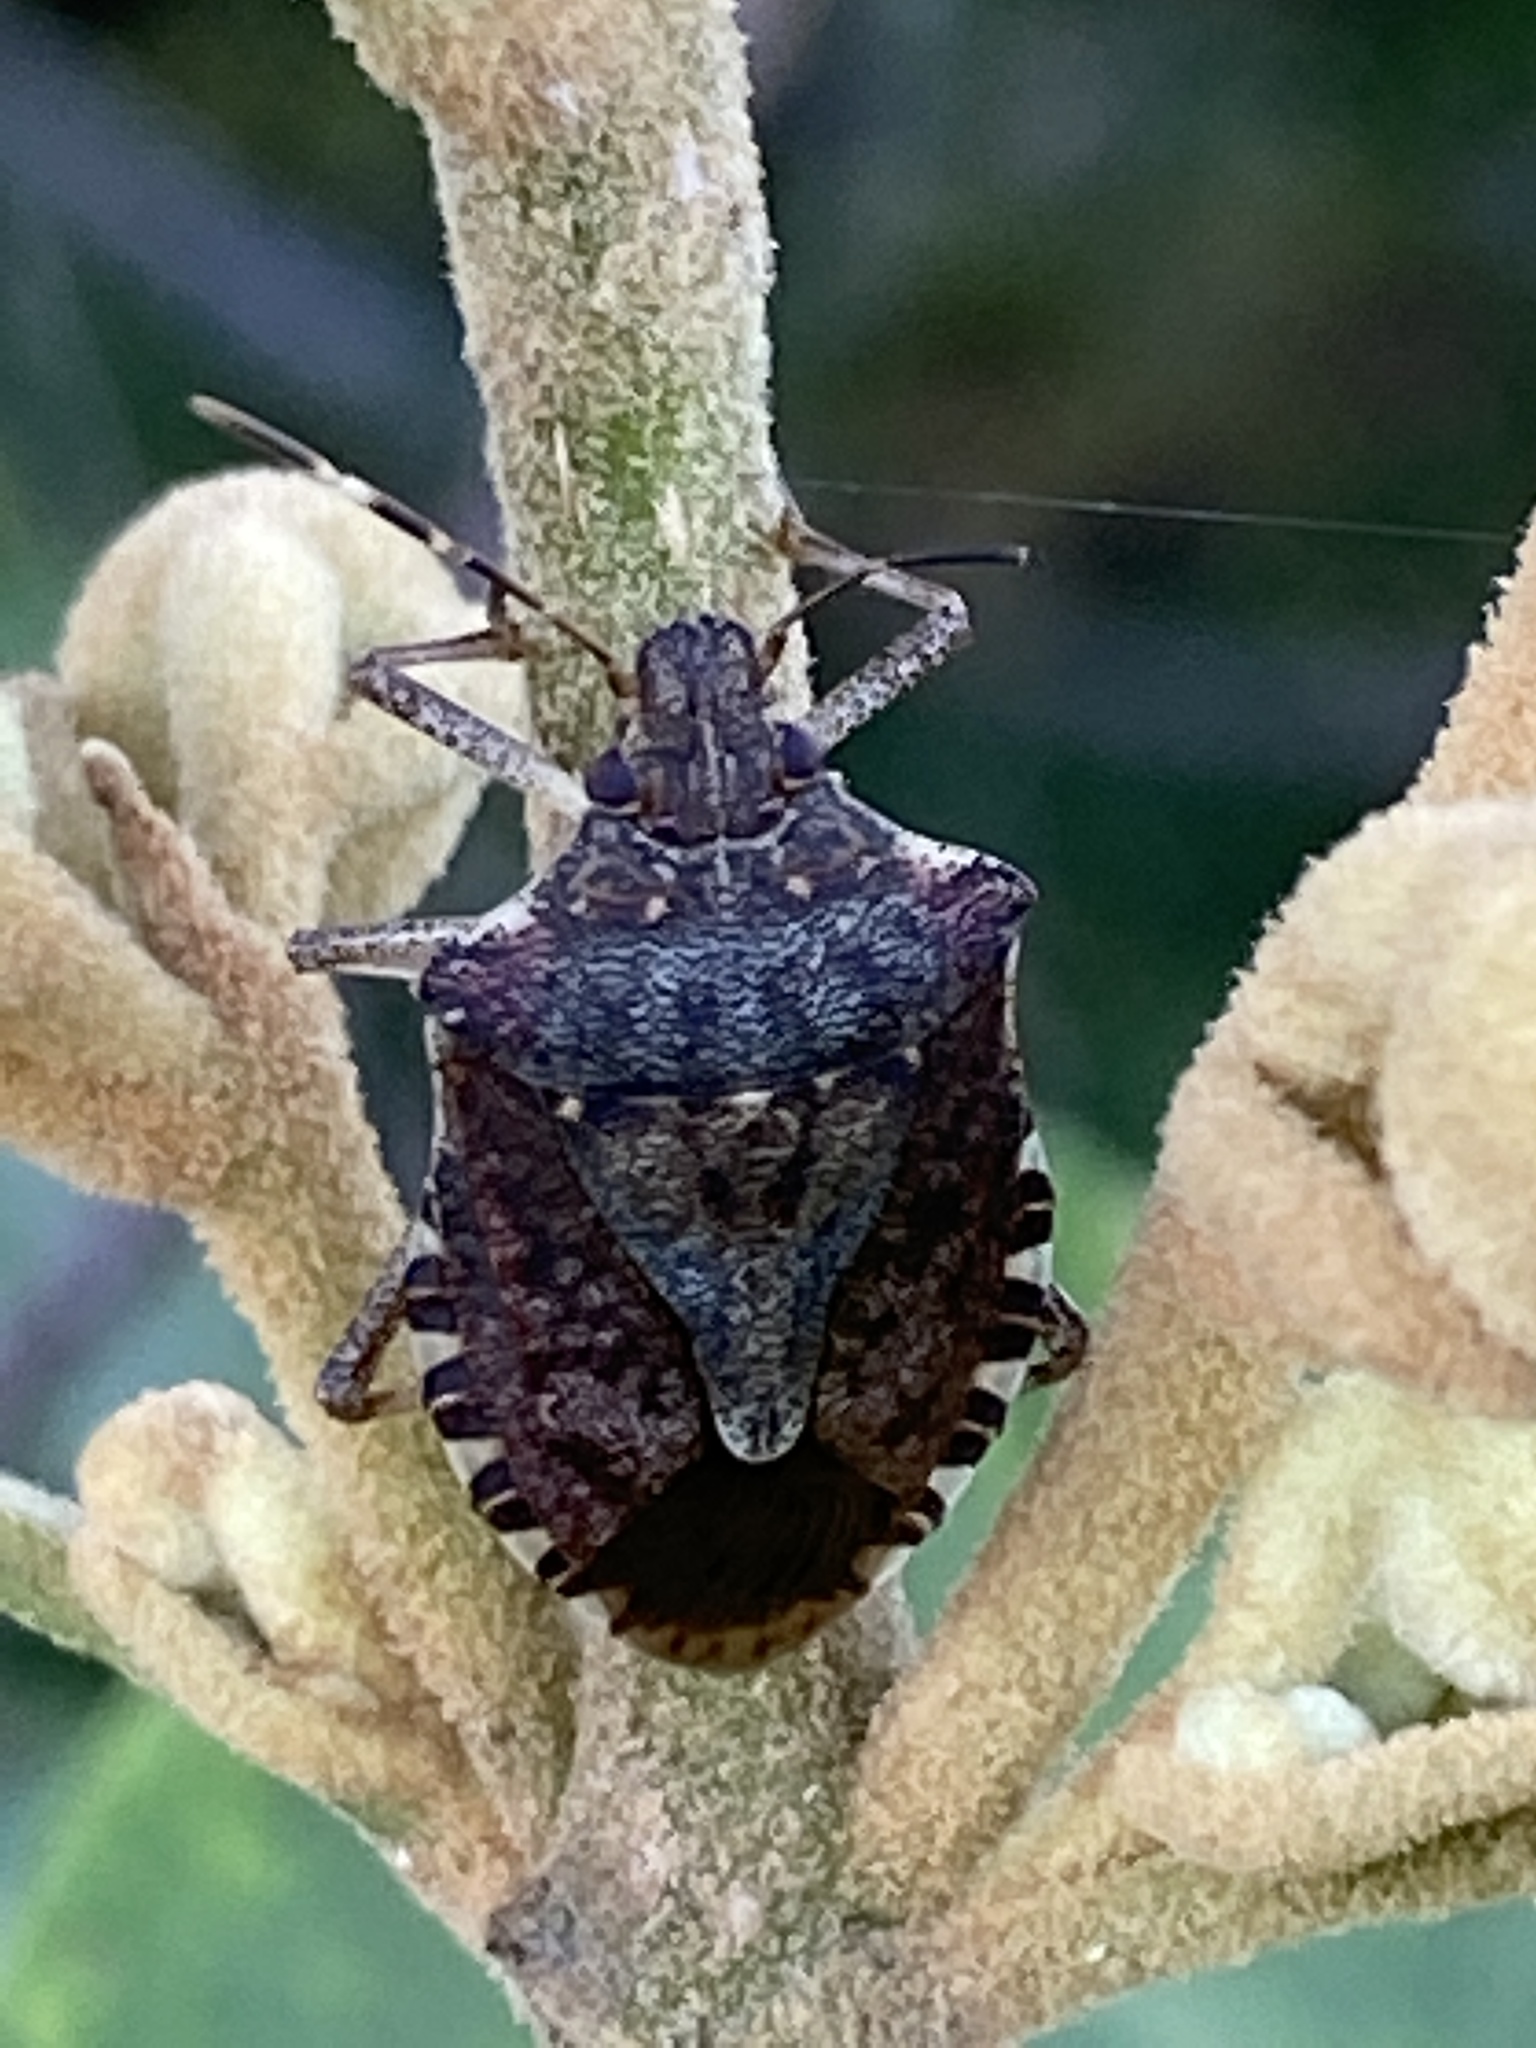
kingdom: Animalia
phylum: Arthropoda
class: Insecta
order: Hemiptera
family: Pentatomidae
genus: Halyomorpha
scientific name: Halyomorpha halys
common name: Brown marmorated stink bug
